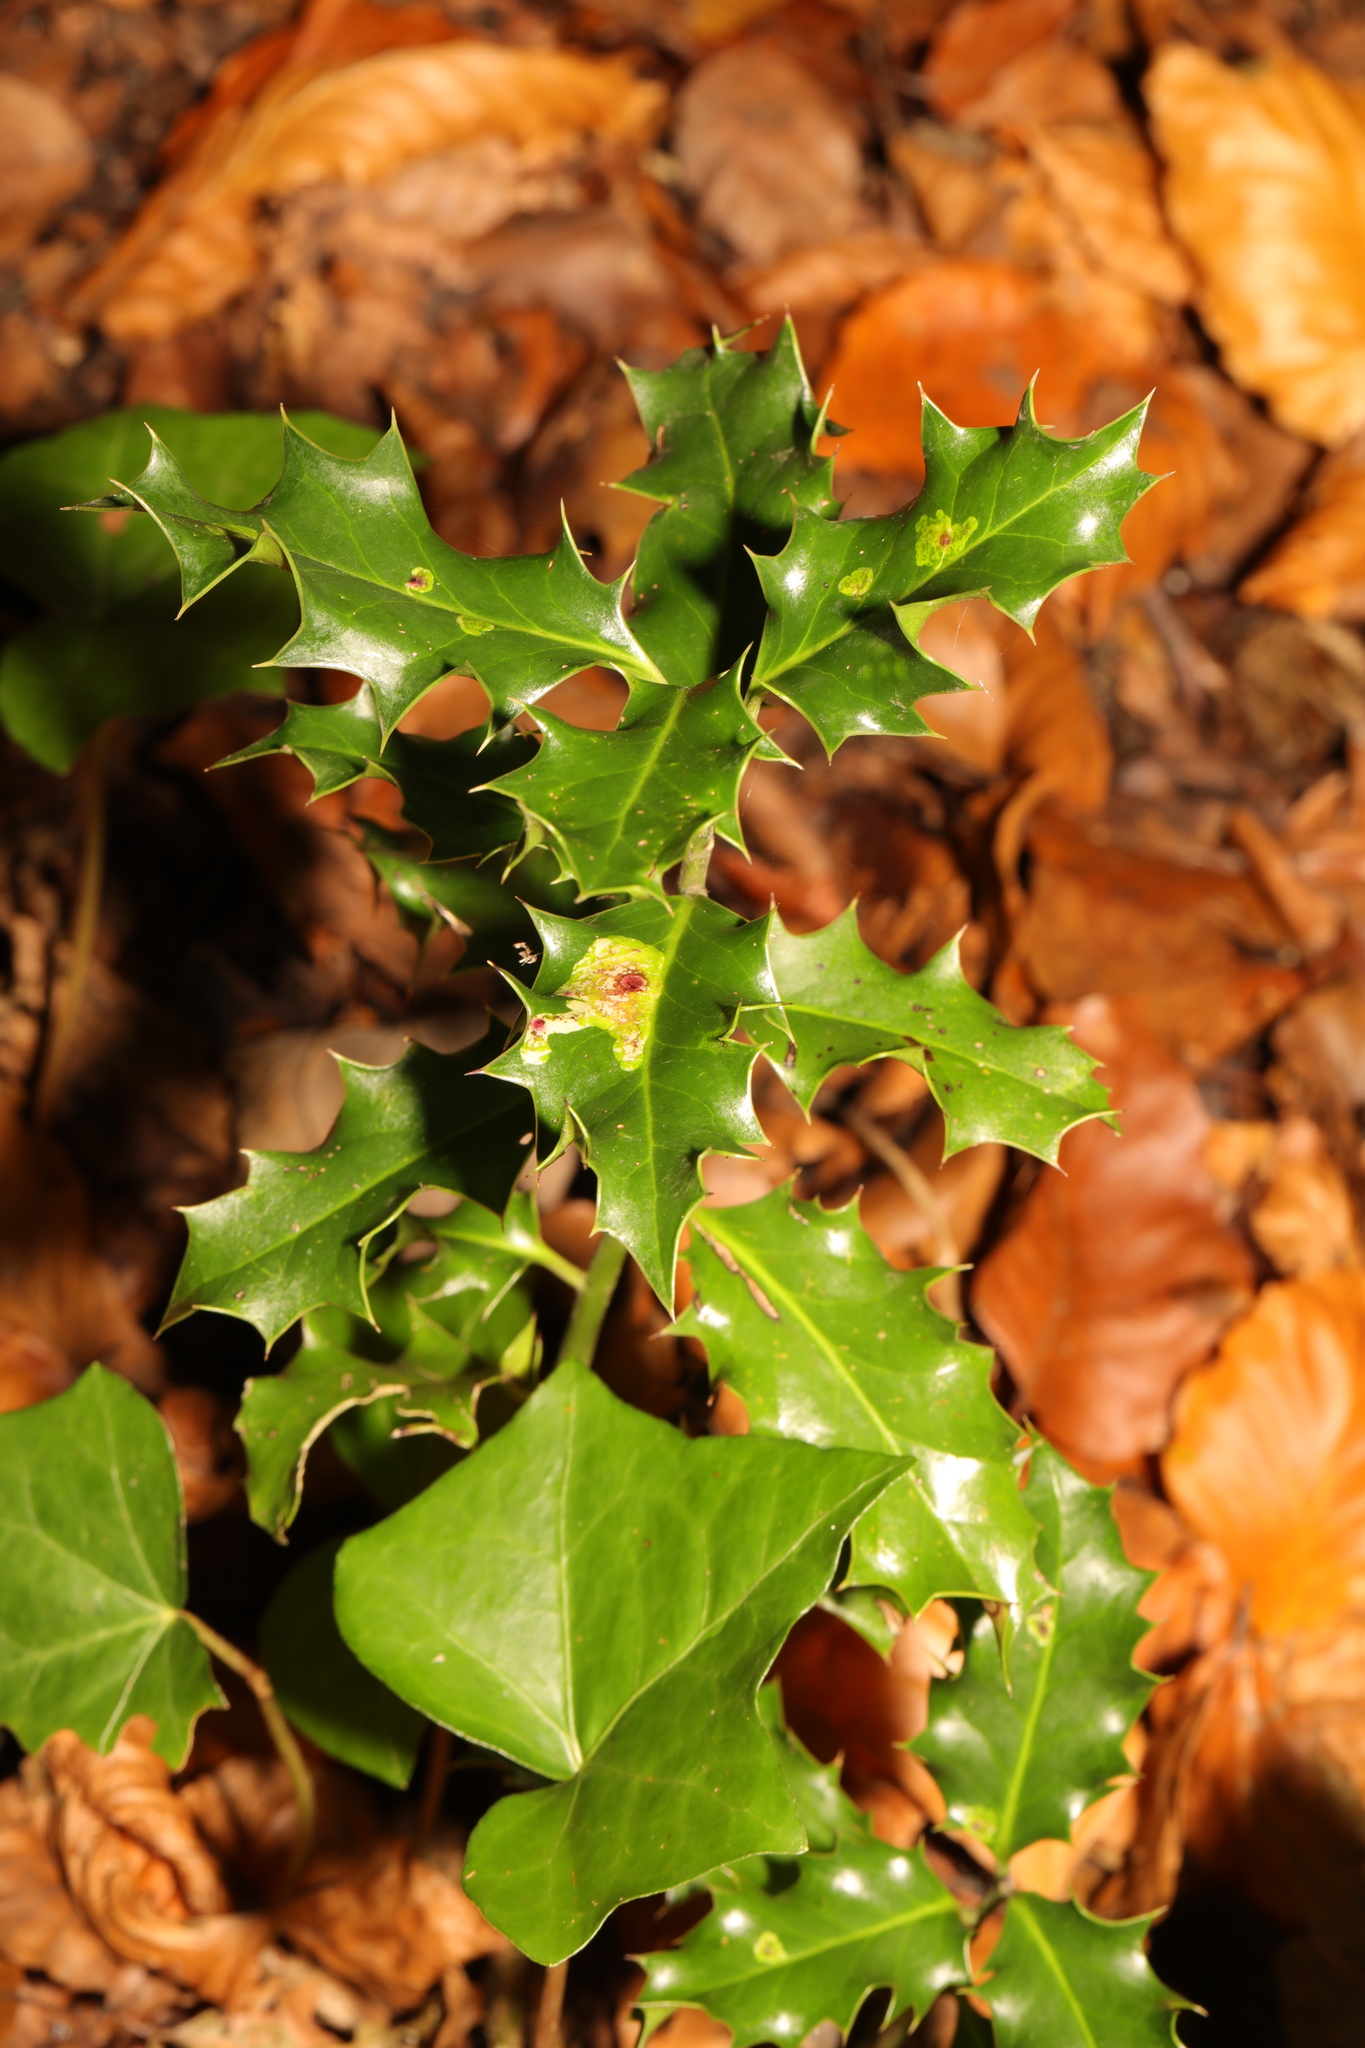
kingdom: Plantae
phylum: Tracheophyta
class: Magnoliopsida
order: Aquifoliales
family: Aquifoliaceae
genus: Ilex
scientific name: Ilex aquifolium
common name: English holly
